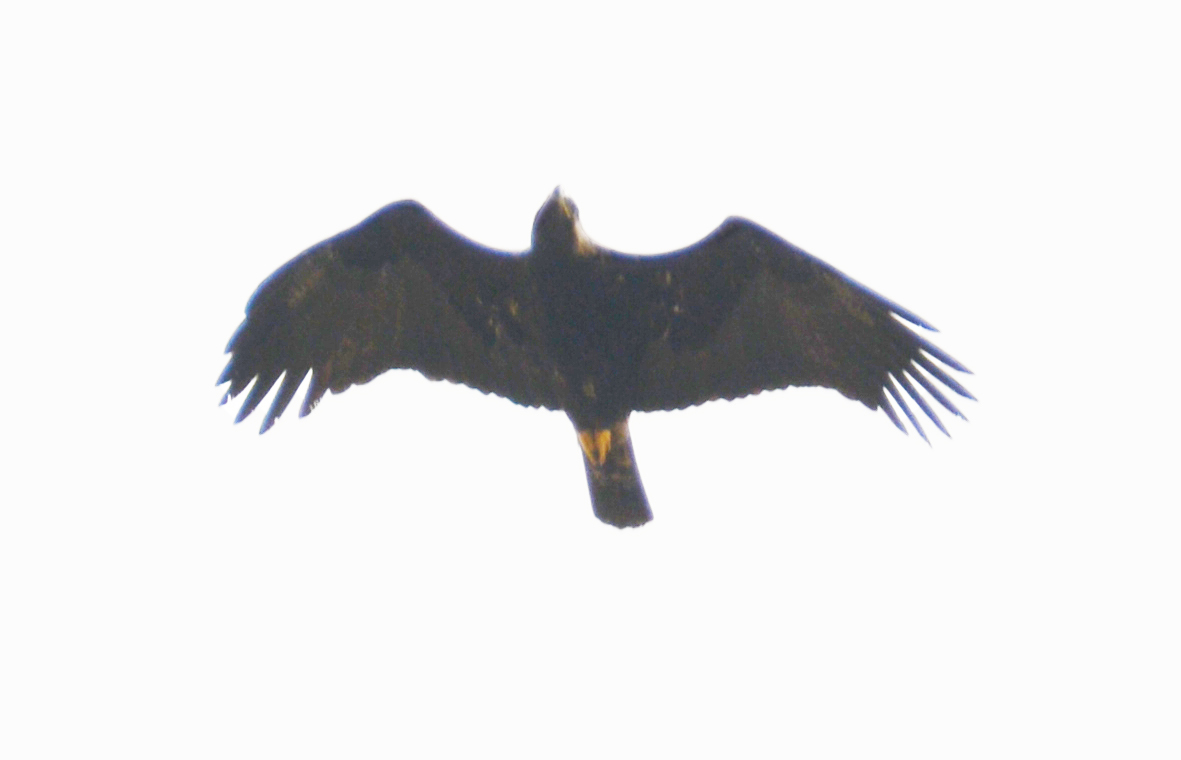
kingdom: Animalia
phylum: Chordata
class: Aves
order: Accipitriformes
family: Accipitridae
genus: Aquila
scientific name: Aquila heliaca
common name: Eastern imperial eagle
